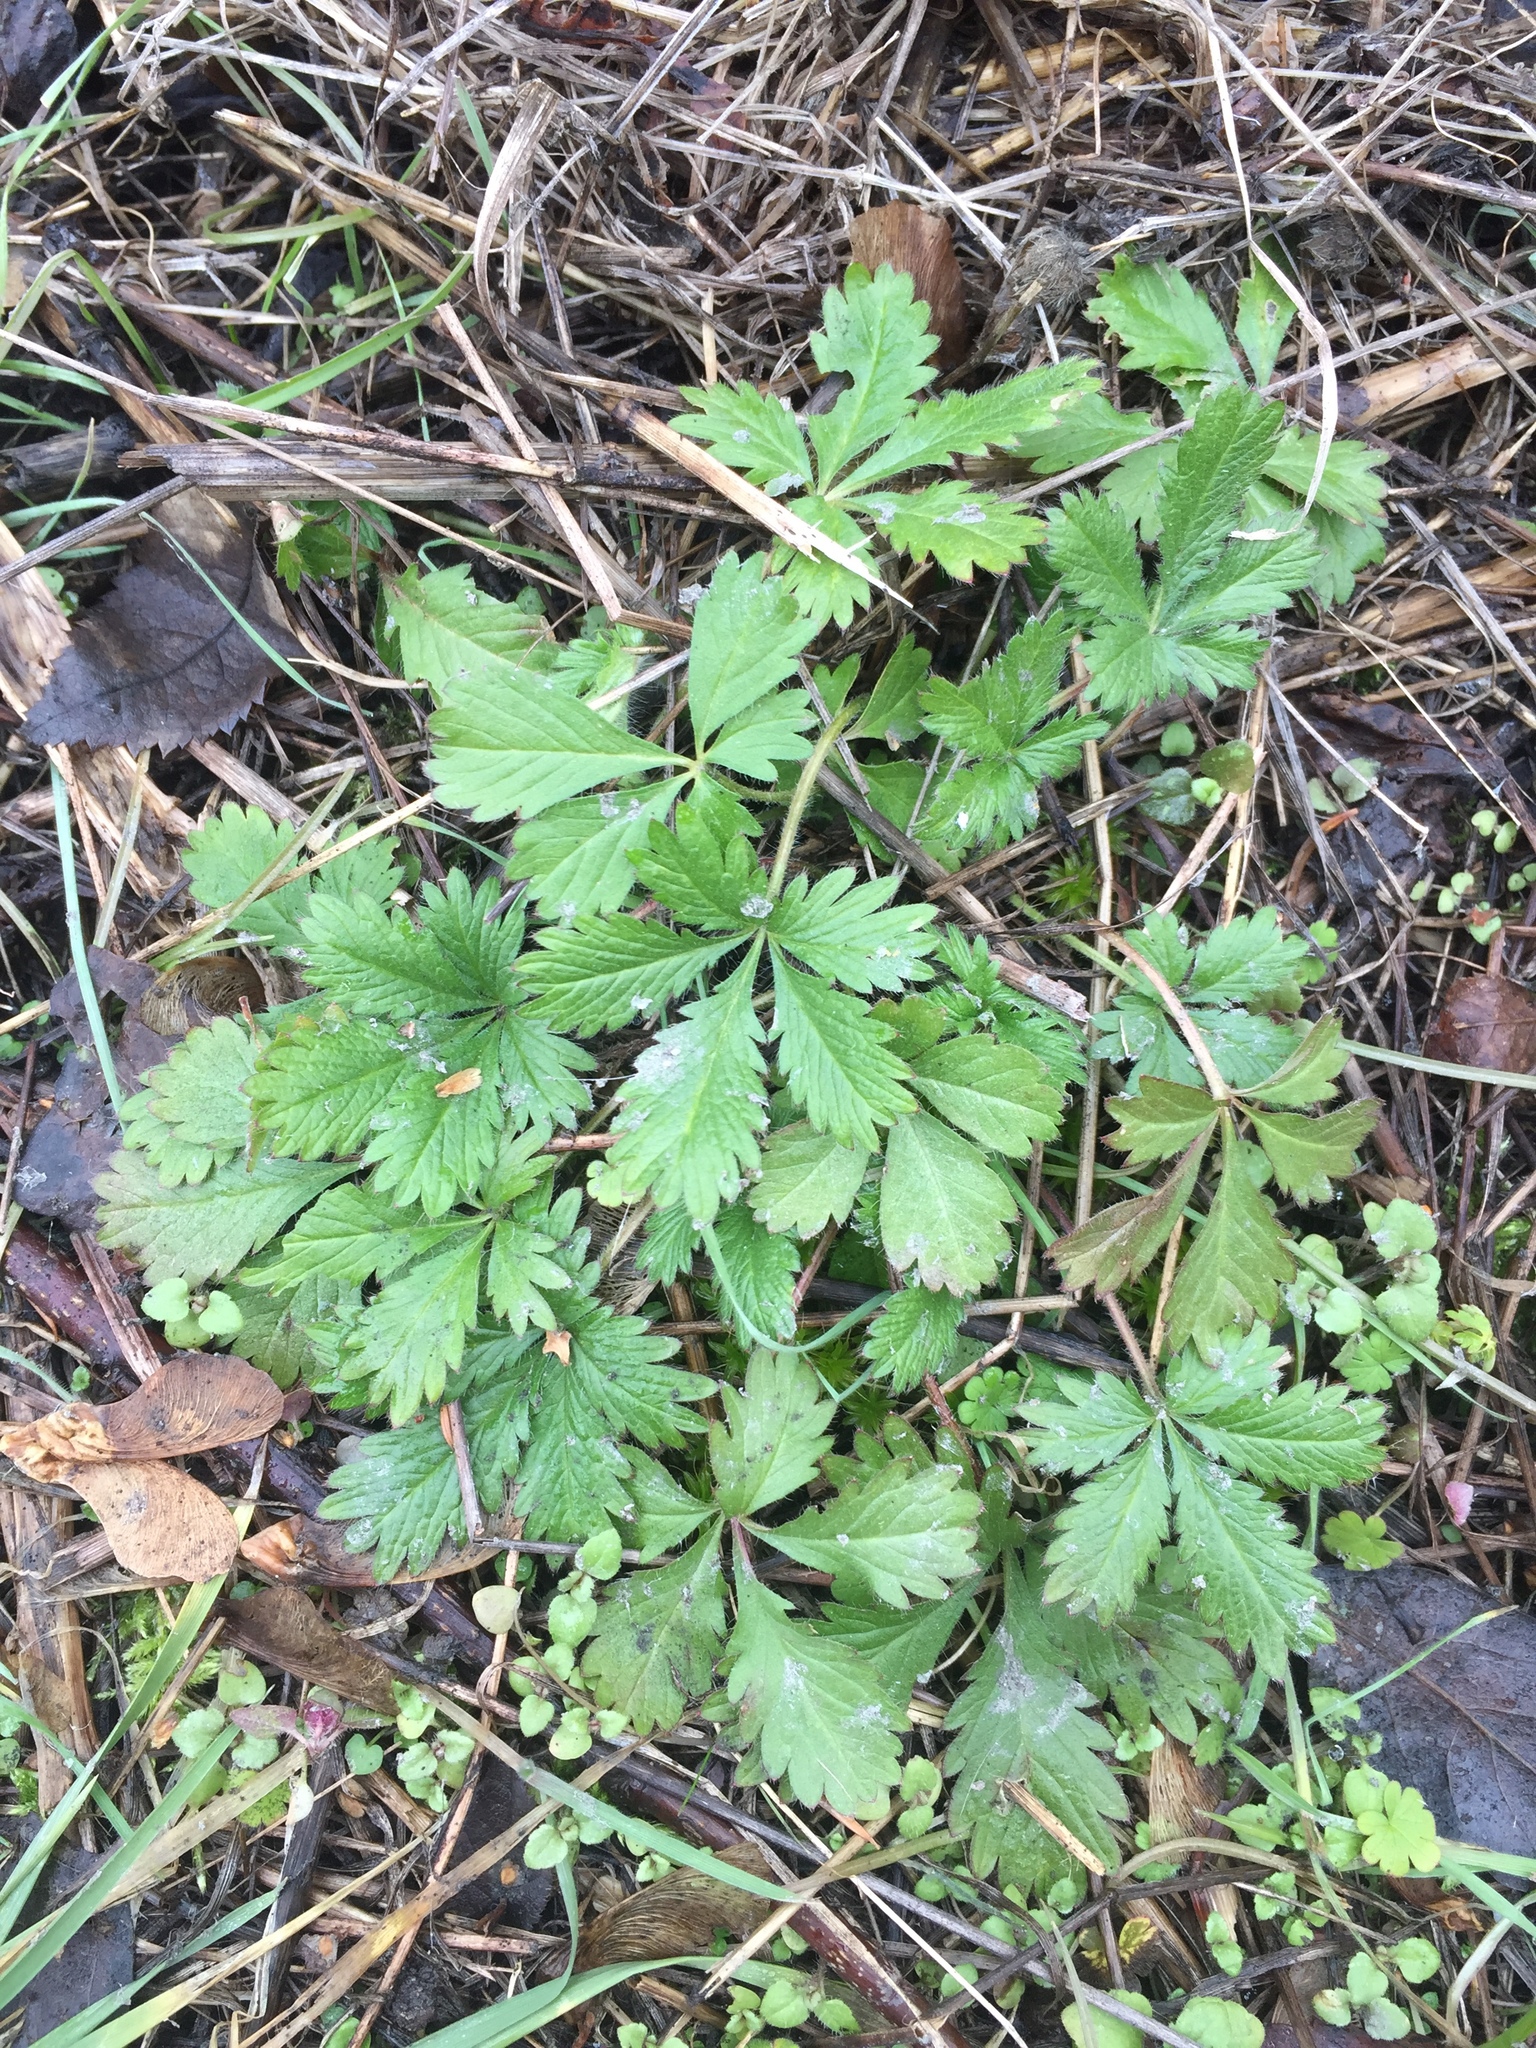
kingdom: Plantae
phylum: Tracheophyta
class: Magnoliopsida
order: Rosales
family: Rosaceae
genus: Potentilla
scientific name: Potentilla recta
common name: Sulphur cinquefoil
